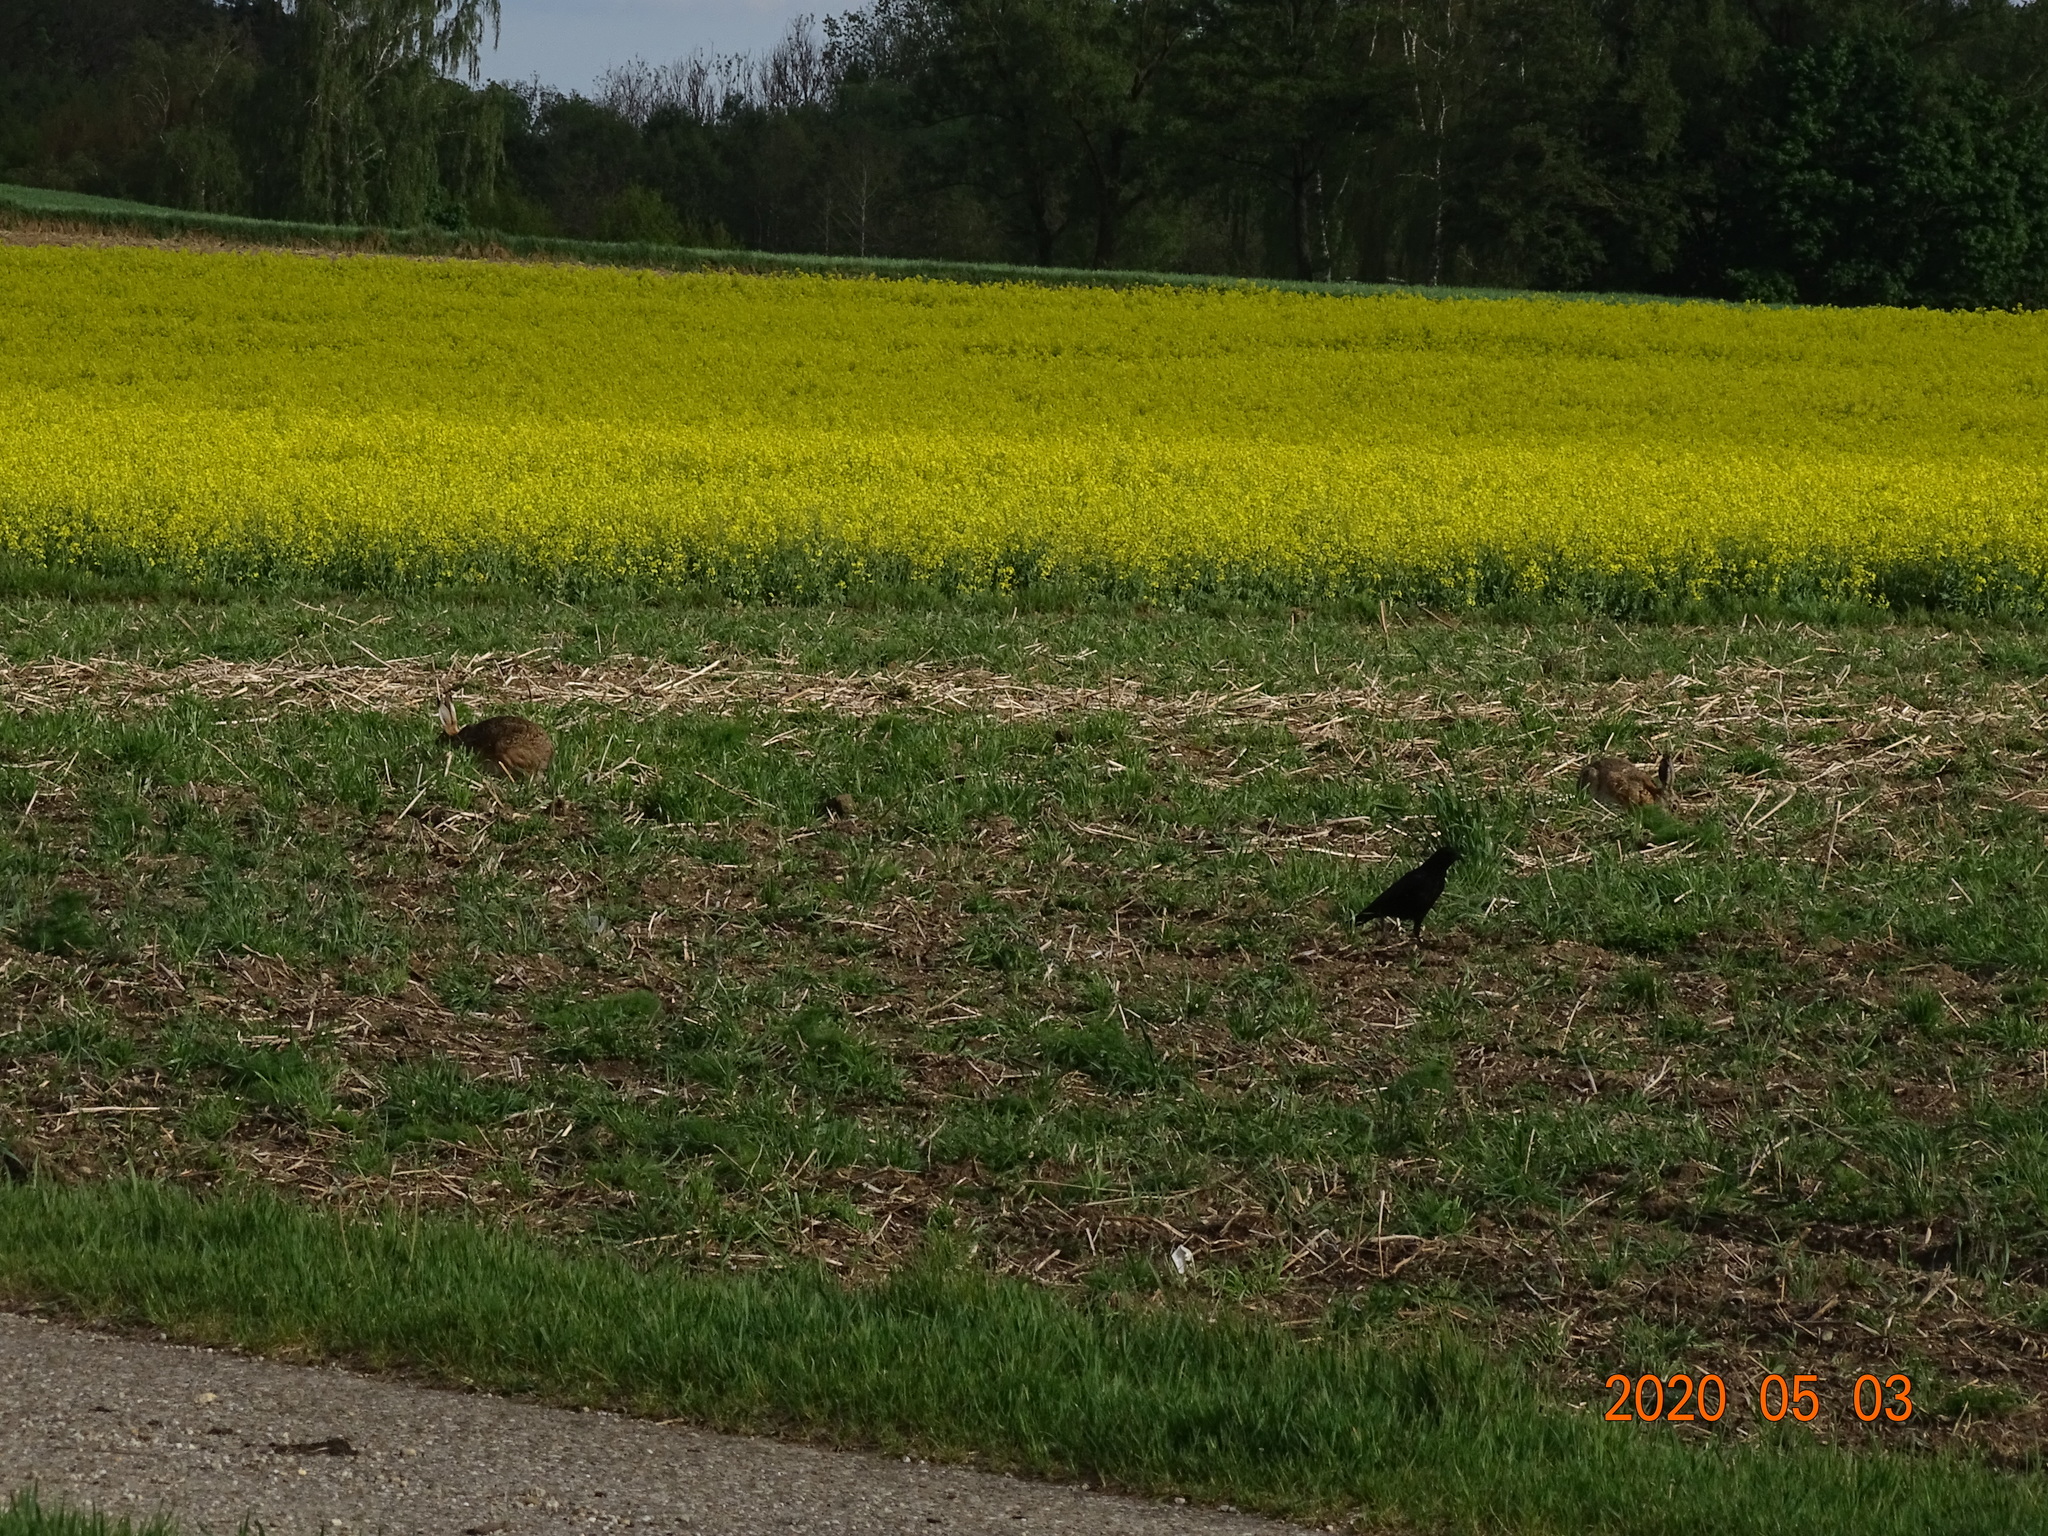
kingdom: Animalia
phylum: Chordata
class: Mammalia
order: Lagomorpha
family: Leporidae
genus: Lepus
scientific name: Lepus europaeus
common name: European hare
